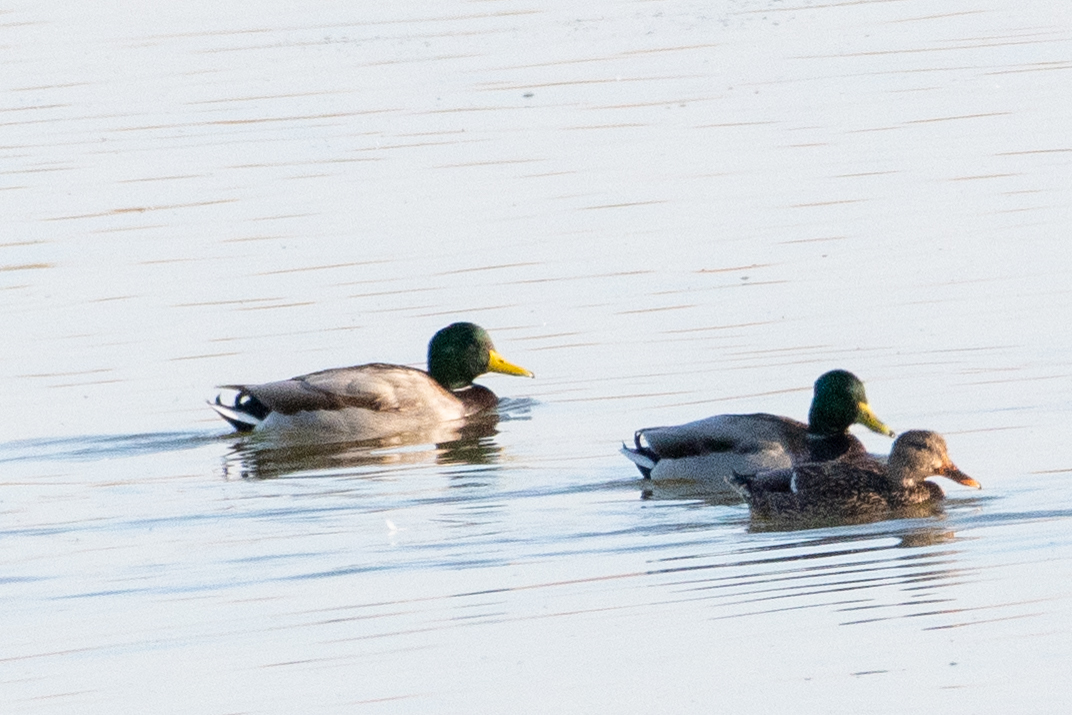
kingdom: Animalia
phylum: Chordata
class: Aves
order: Anseriformes
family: Anatidae
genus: Anas
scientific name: Anas platyrhynchos
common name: Mallard
